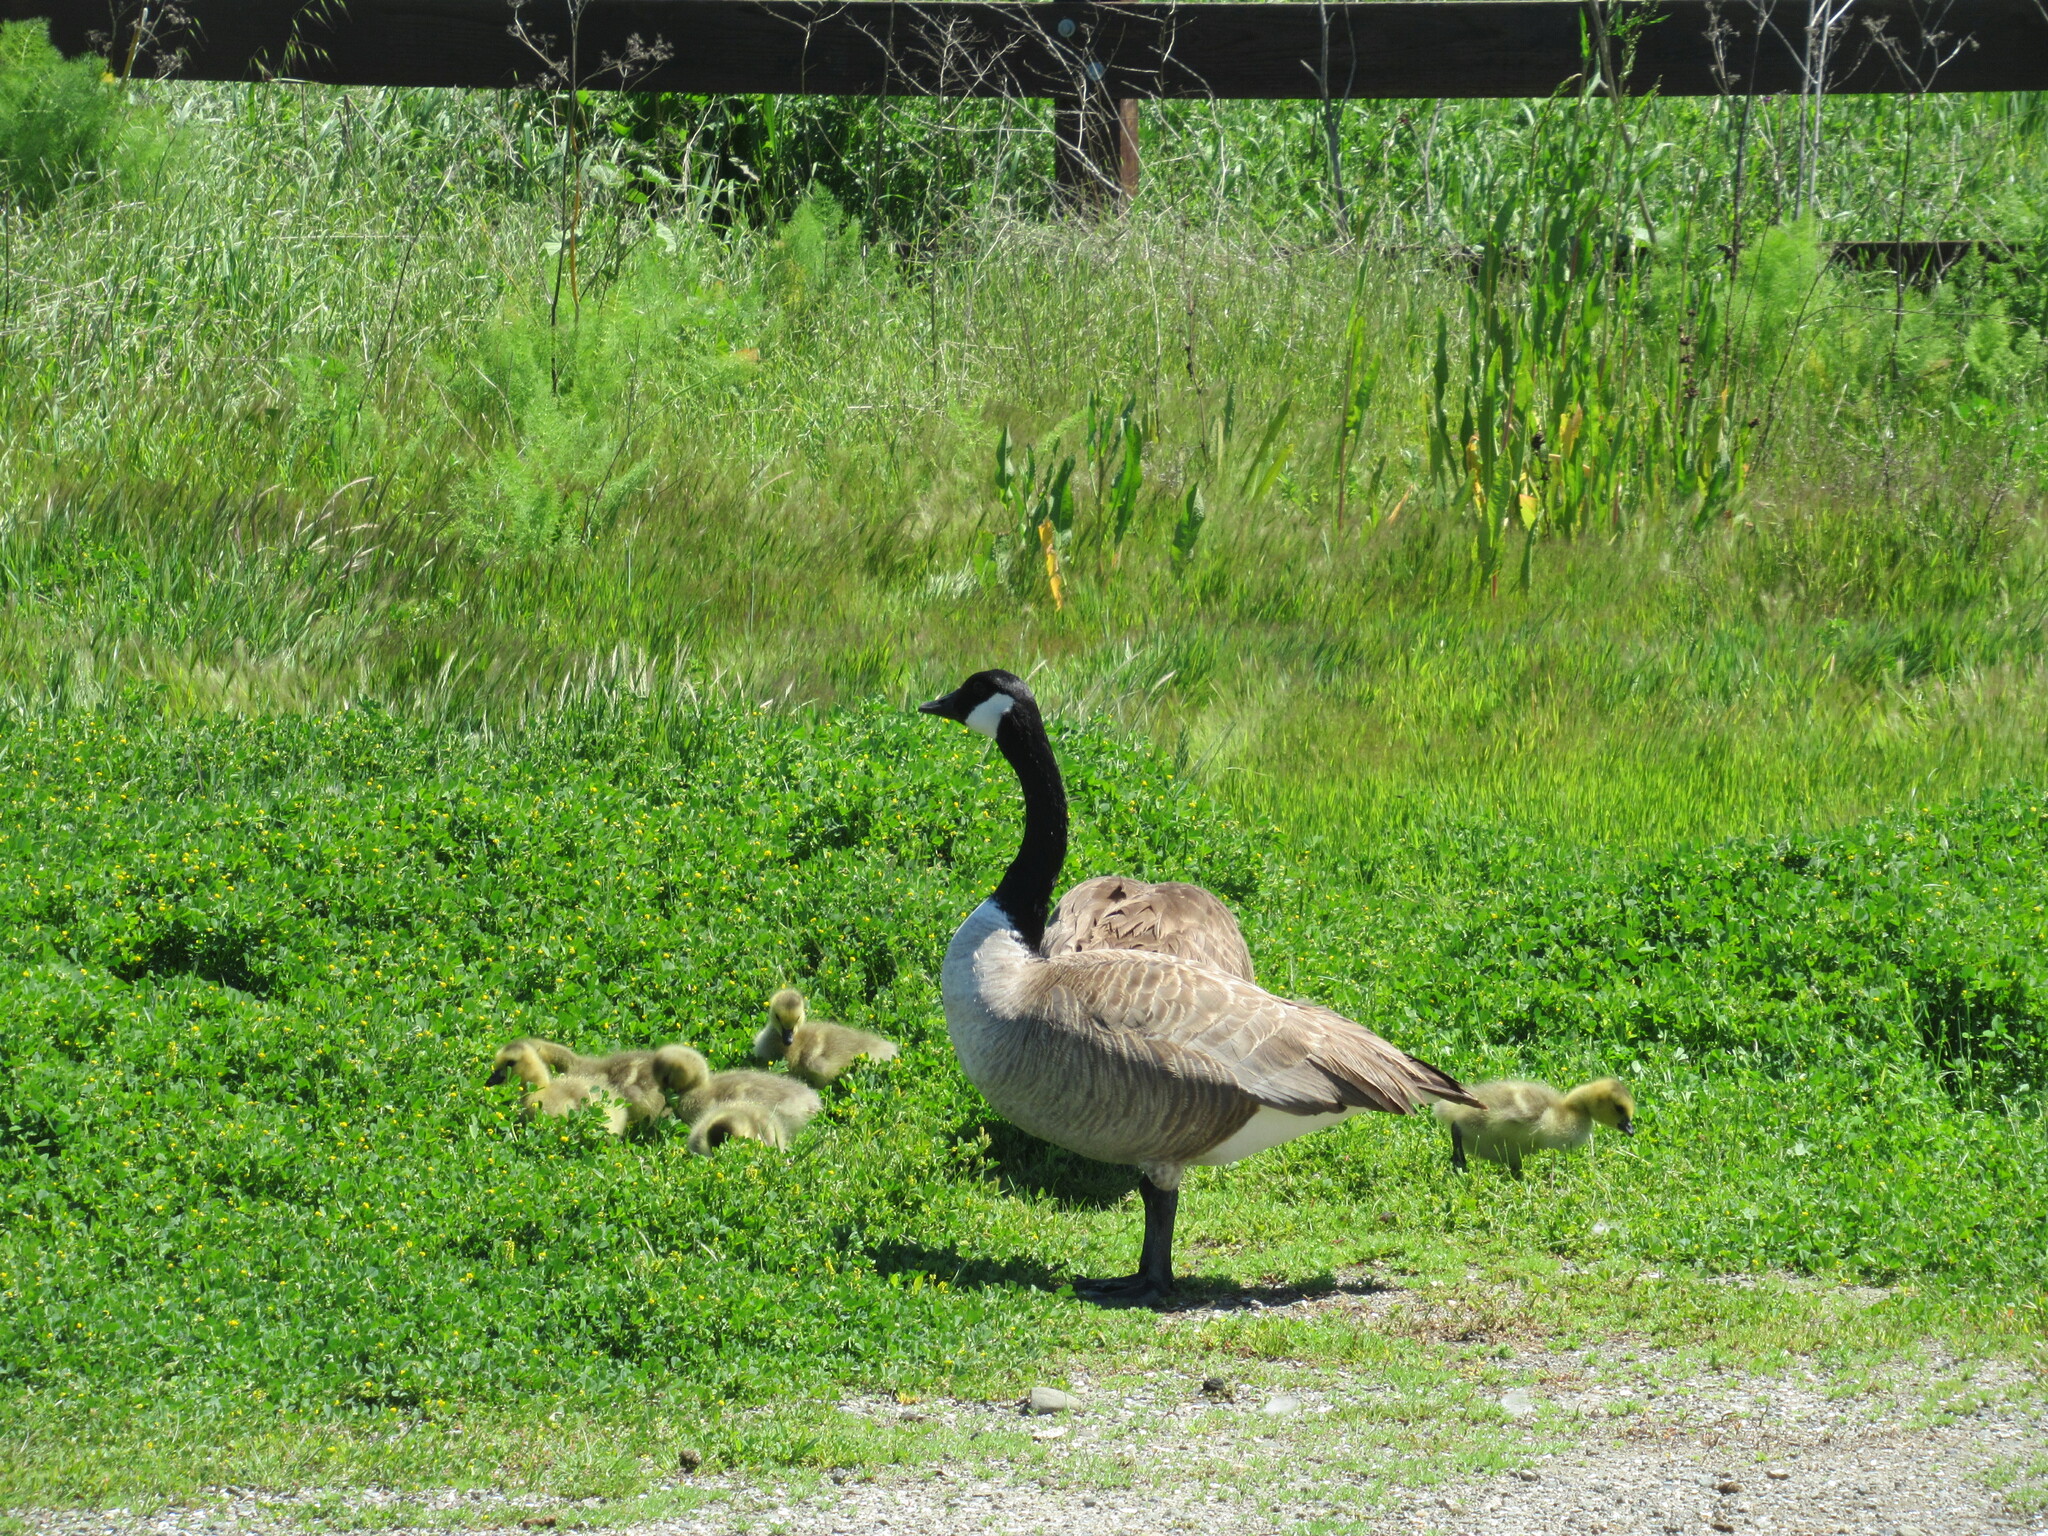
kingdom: Animalia
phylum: Chordata
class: Aves
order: Anseriformes
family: Anatidae
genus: Branta
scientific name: Branta canadensis
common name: Canada goose
